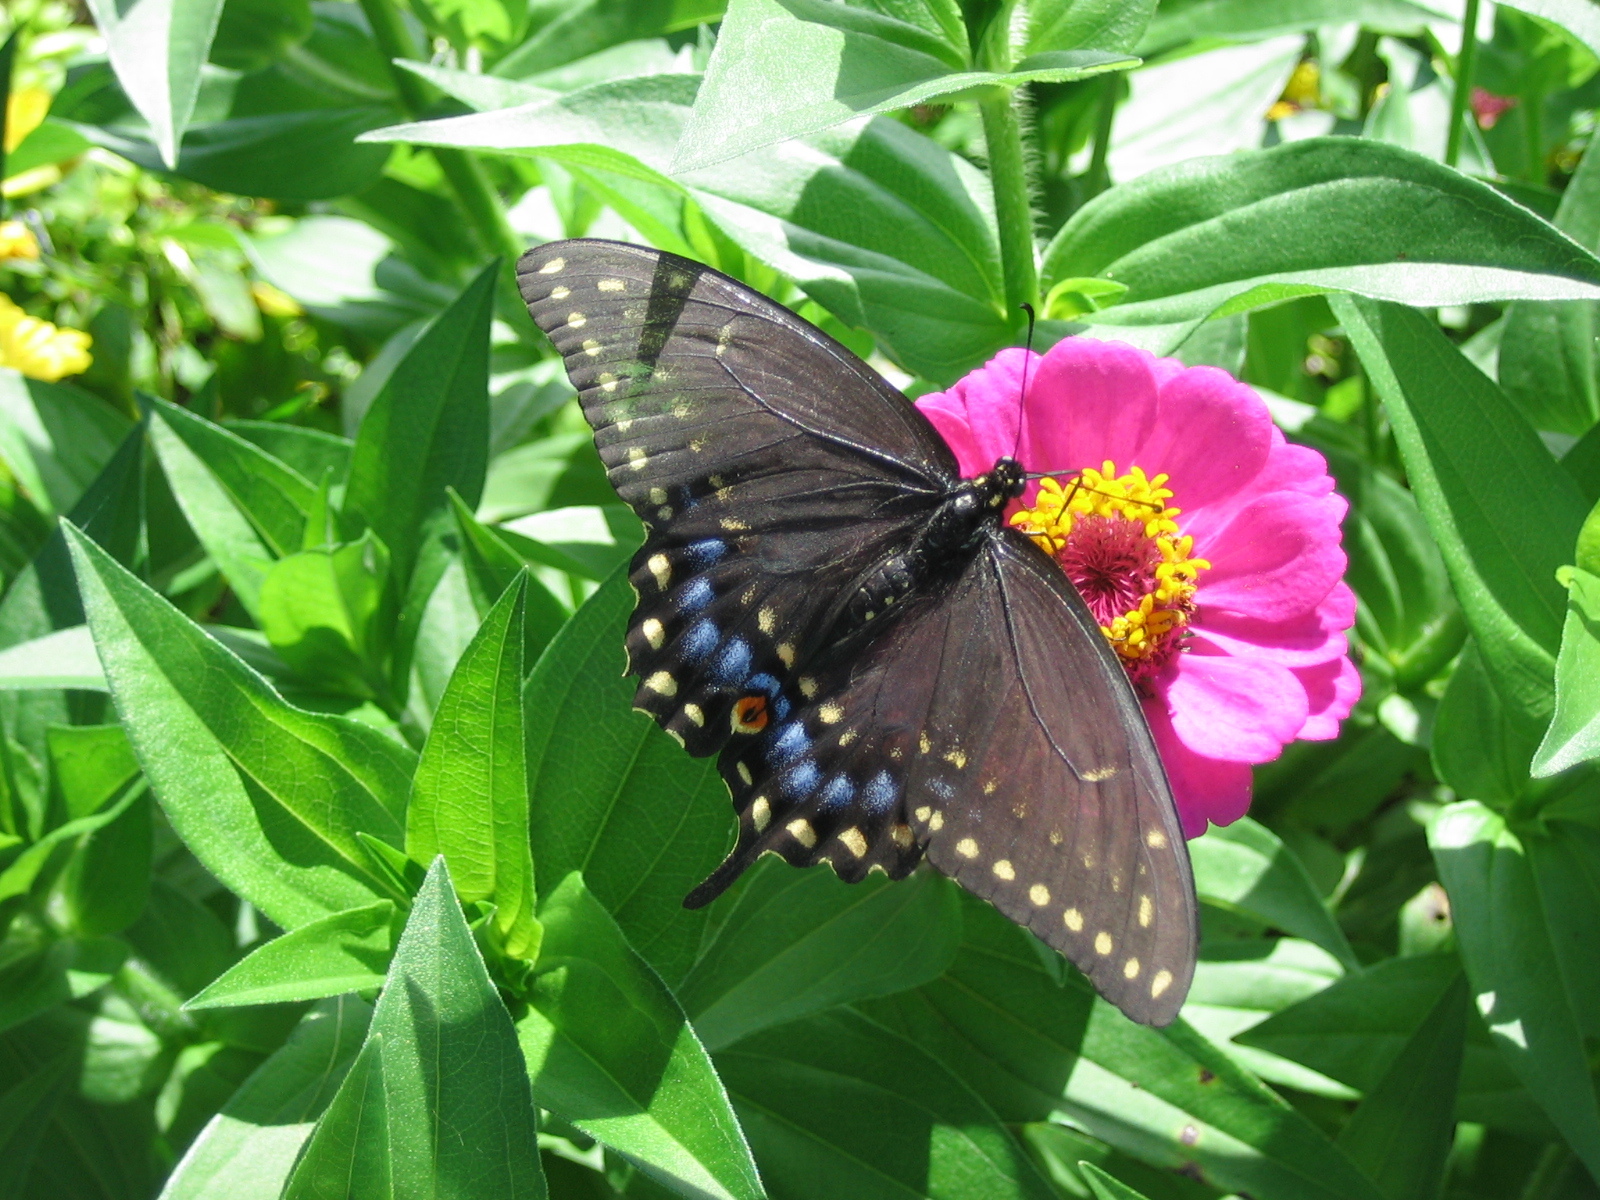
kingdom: Animalia
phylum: Arthropoda
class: Insecta
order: Lepidoptera
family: Papilionidae
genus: Papilio
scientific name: Papilio polyxenes
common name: Black swallowtail
